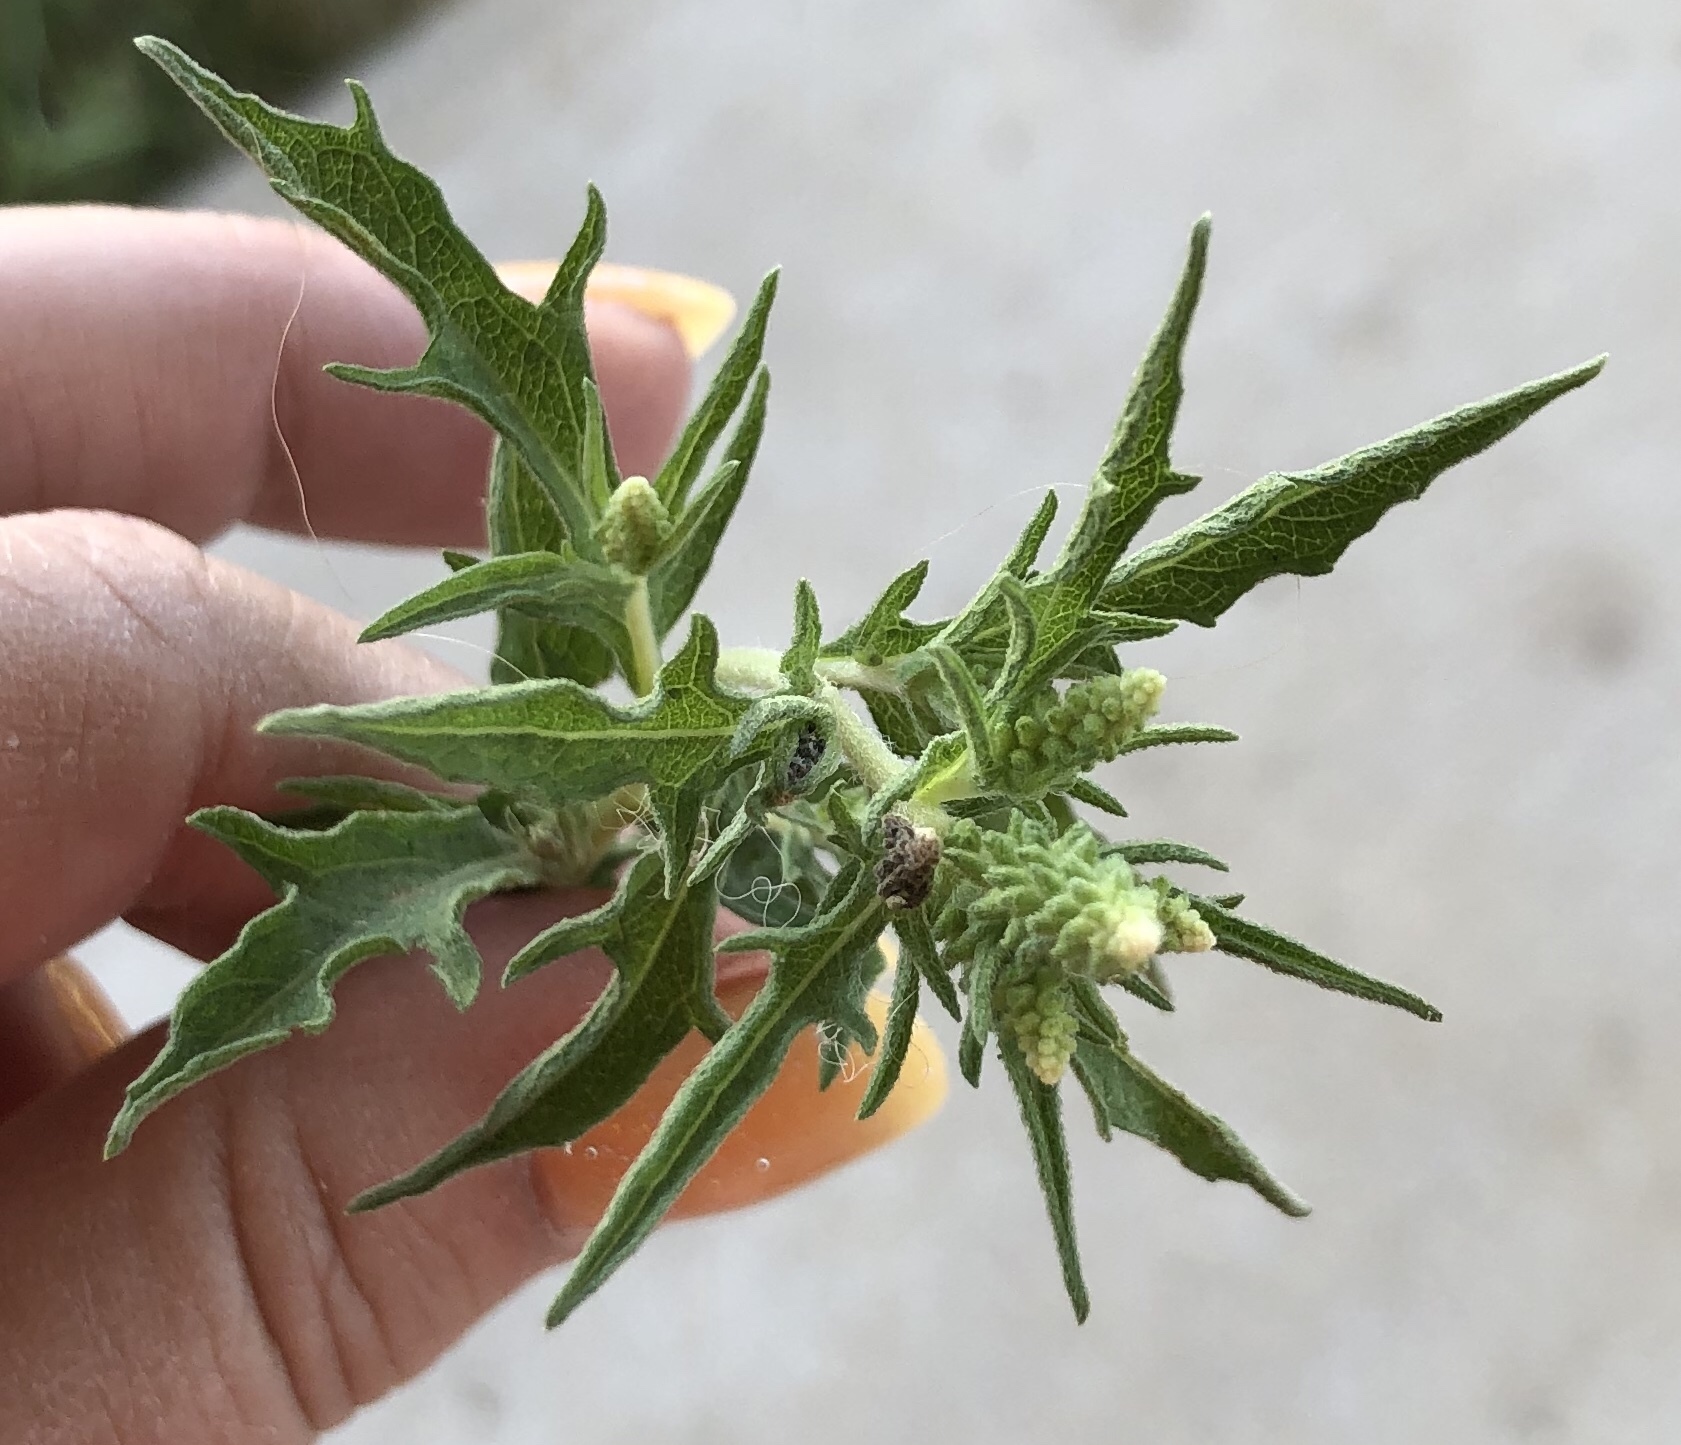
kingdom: Plantae
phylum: Tracheophyta
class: Magnoliopsida
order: Asterales
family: Asteraceae
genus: Ambrosia
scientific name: Ambrosia psilostachya
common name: Perennial ragweed
